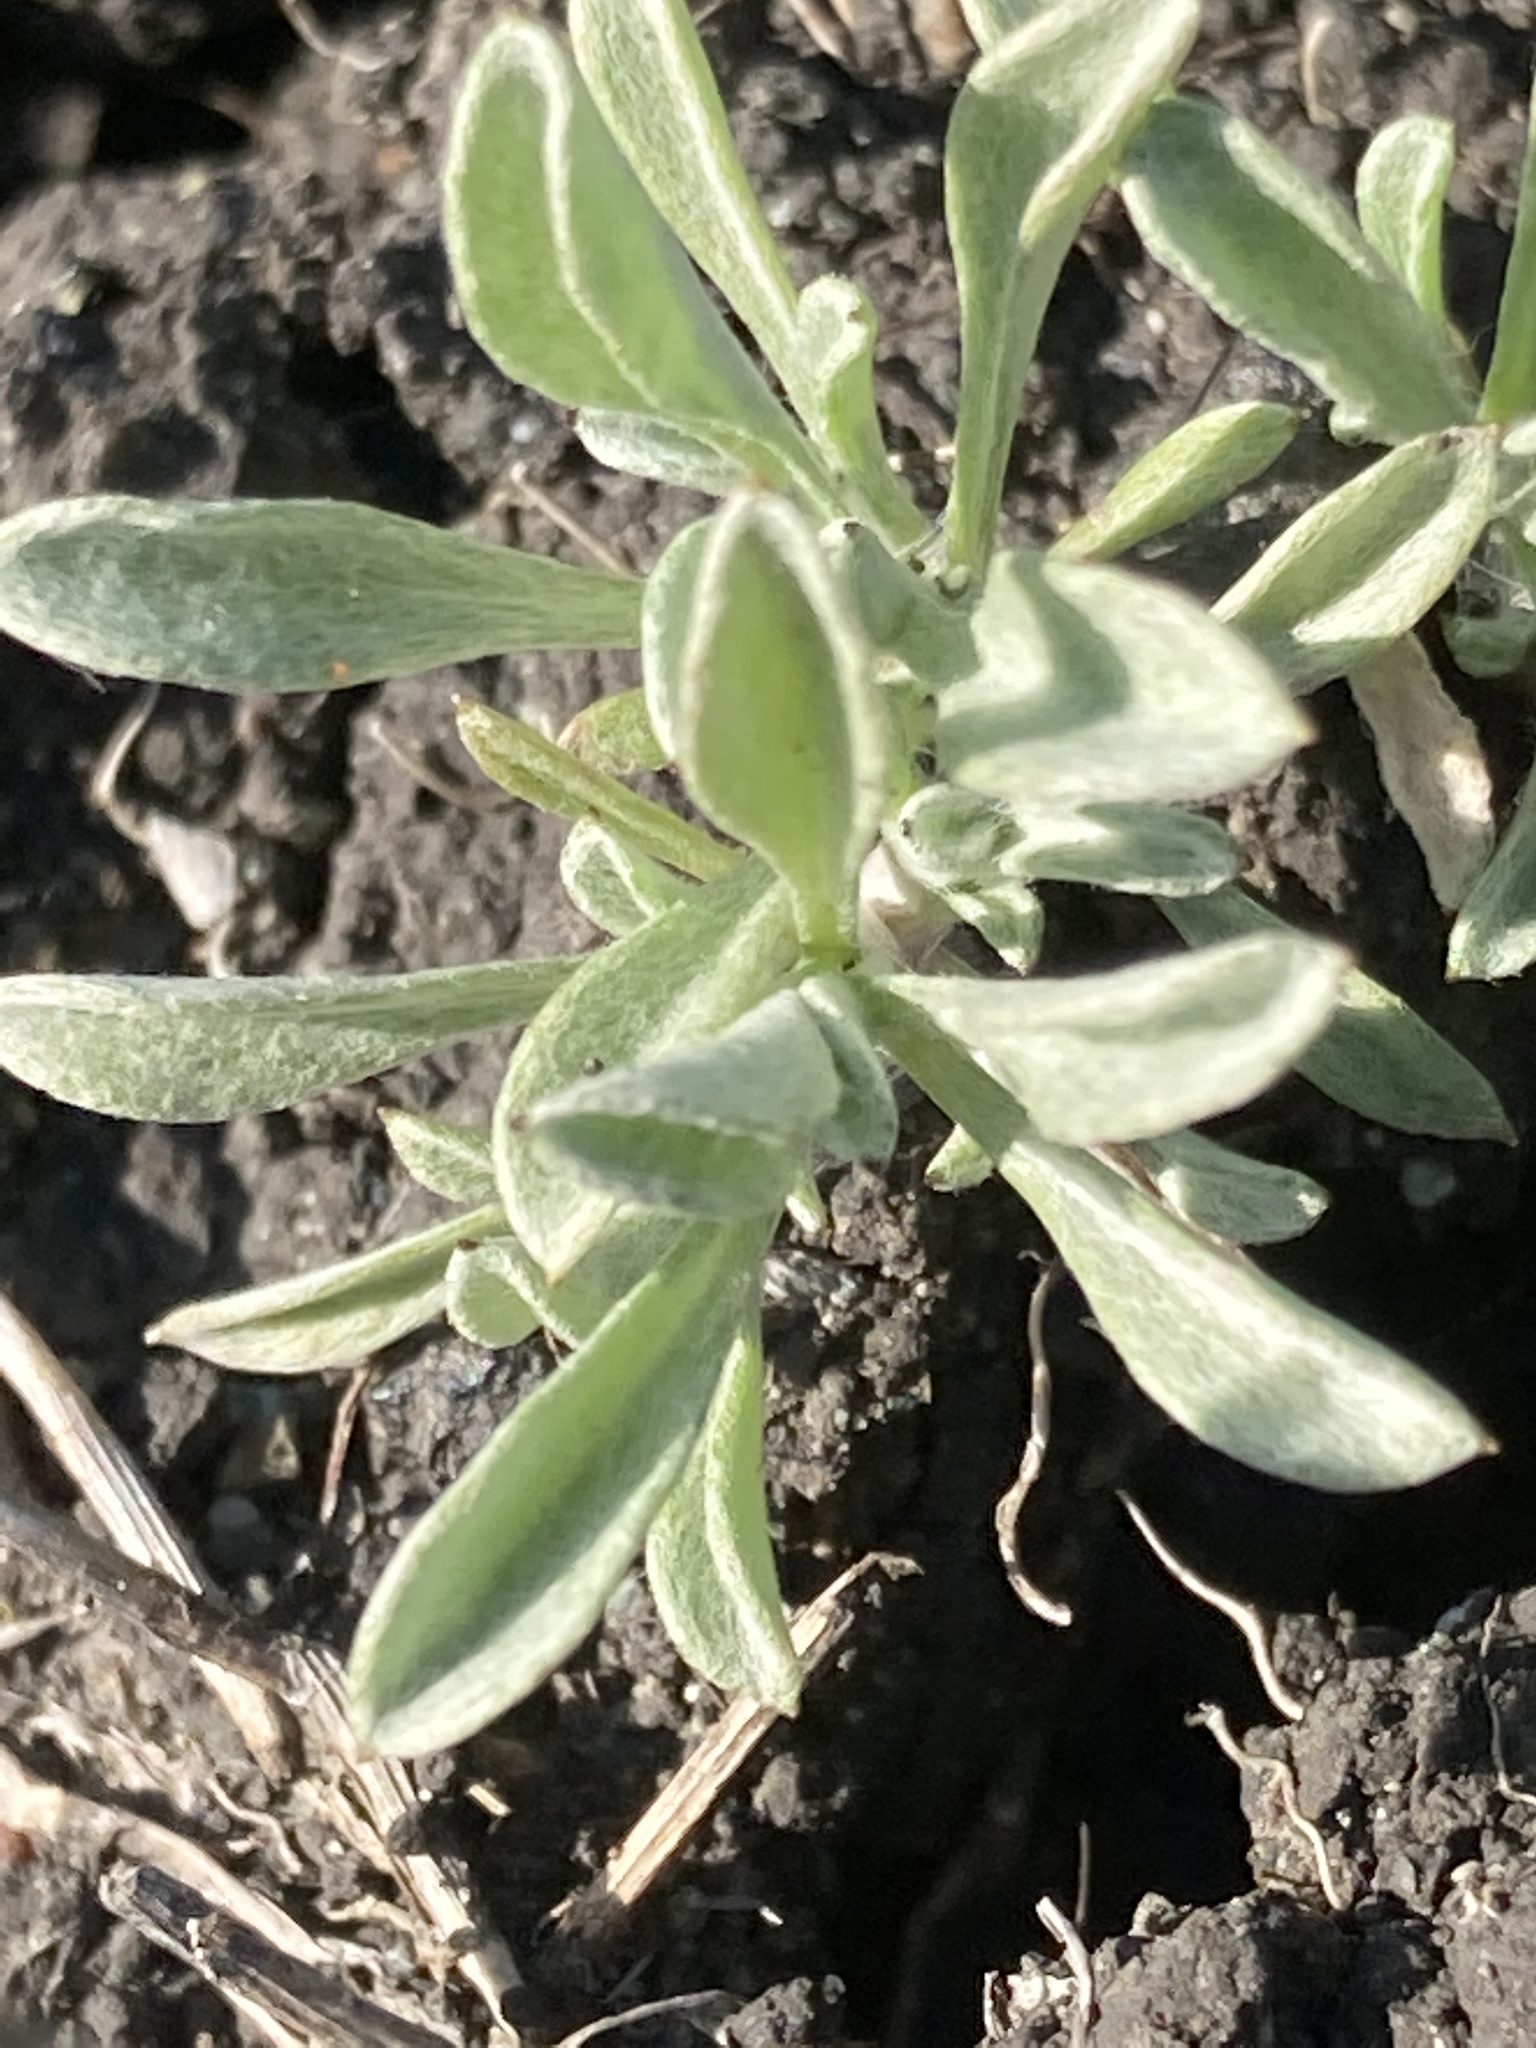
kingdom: Plantae
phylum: Tracheophyta
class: Magnoliopsida
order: Asterales
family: Asteraceae
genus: Hesperevax
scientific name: Hesperevax sparsiflora
